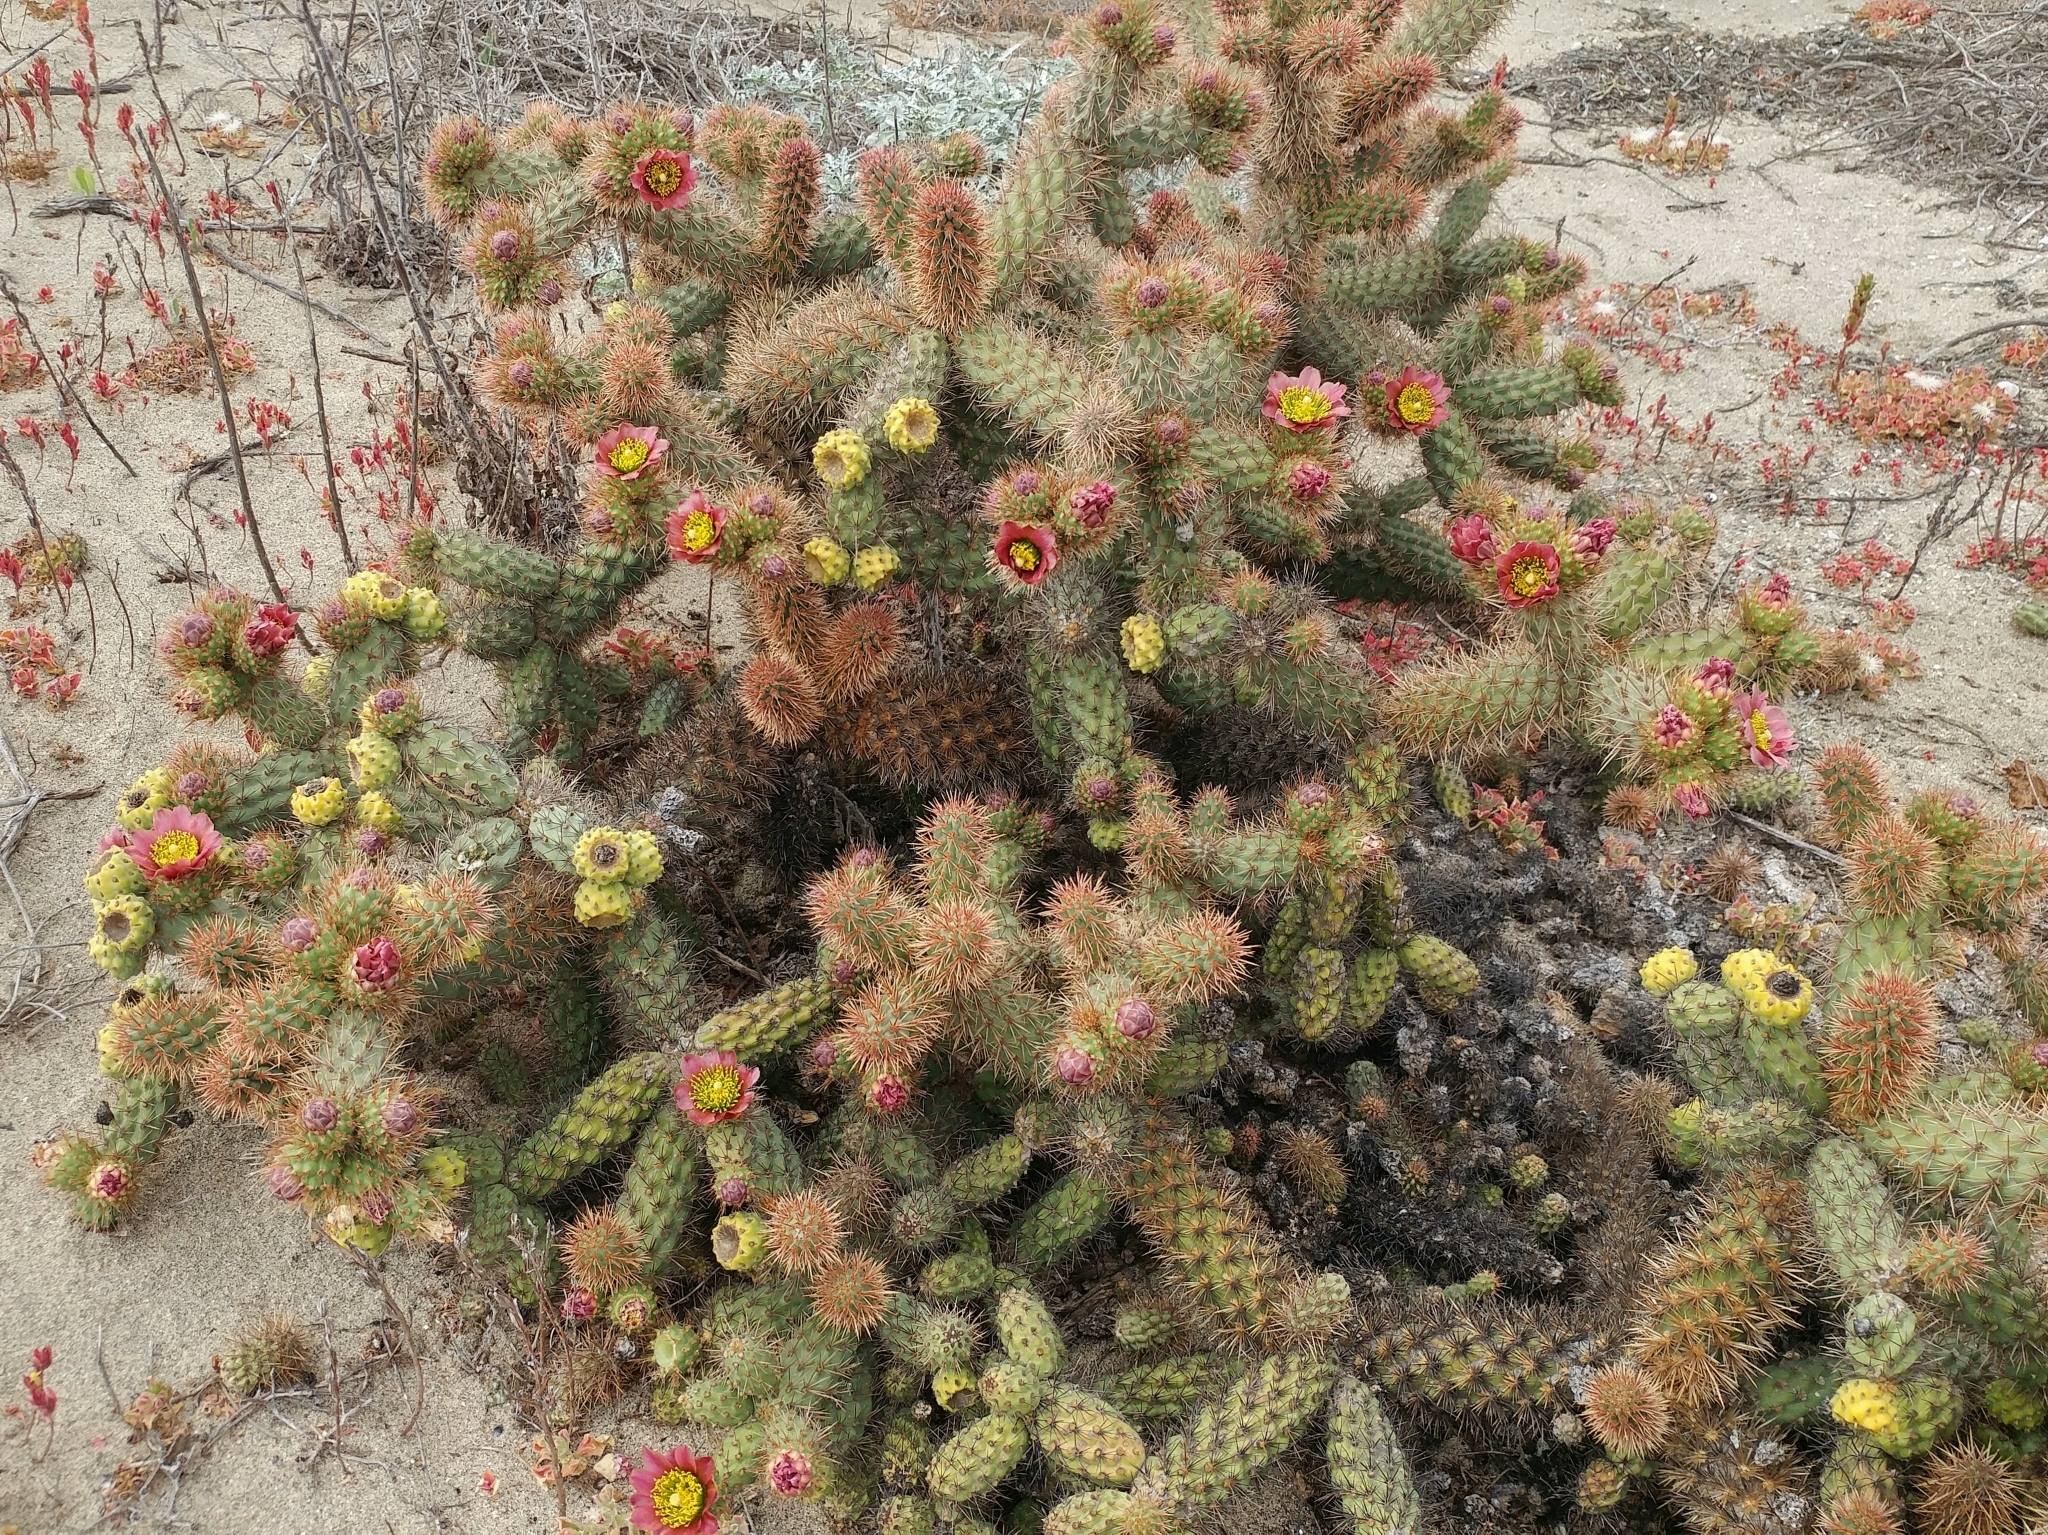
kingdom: Plantae
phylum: Tracheophyta
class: Magnoliopsida
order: Caryophyllales
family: Cactaceae
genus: Cylindropuntia
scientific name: Cylindropuntia prolifera
